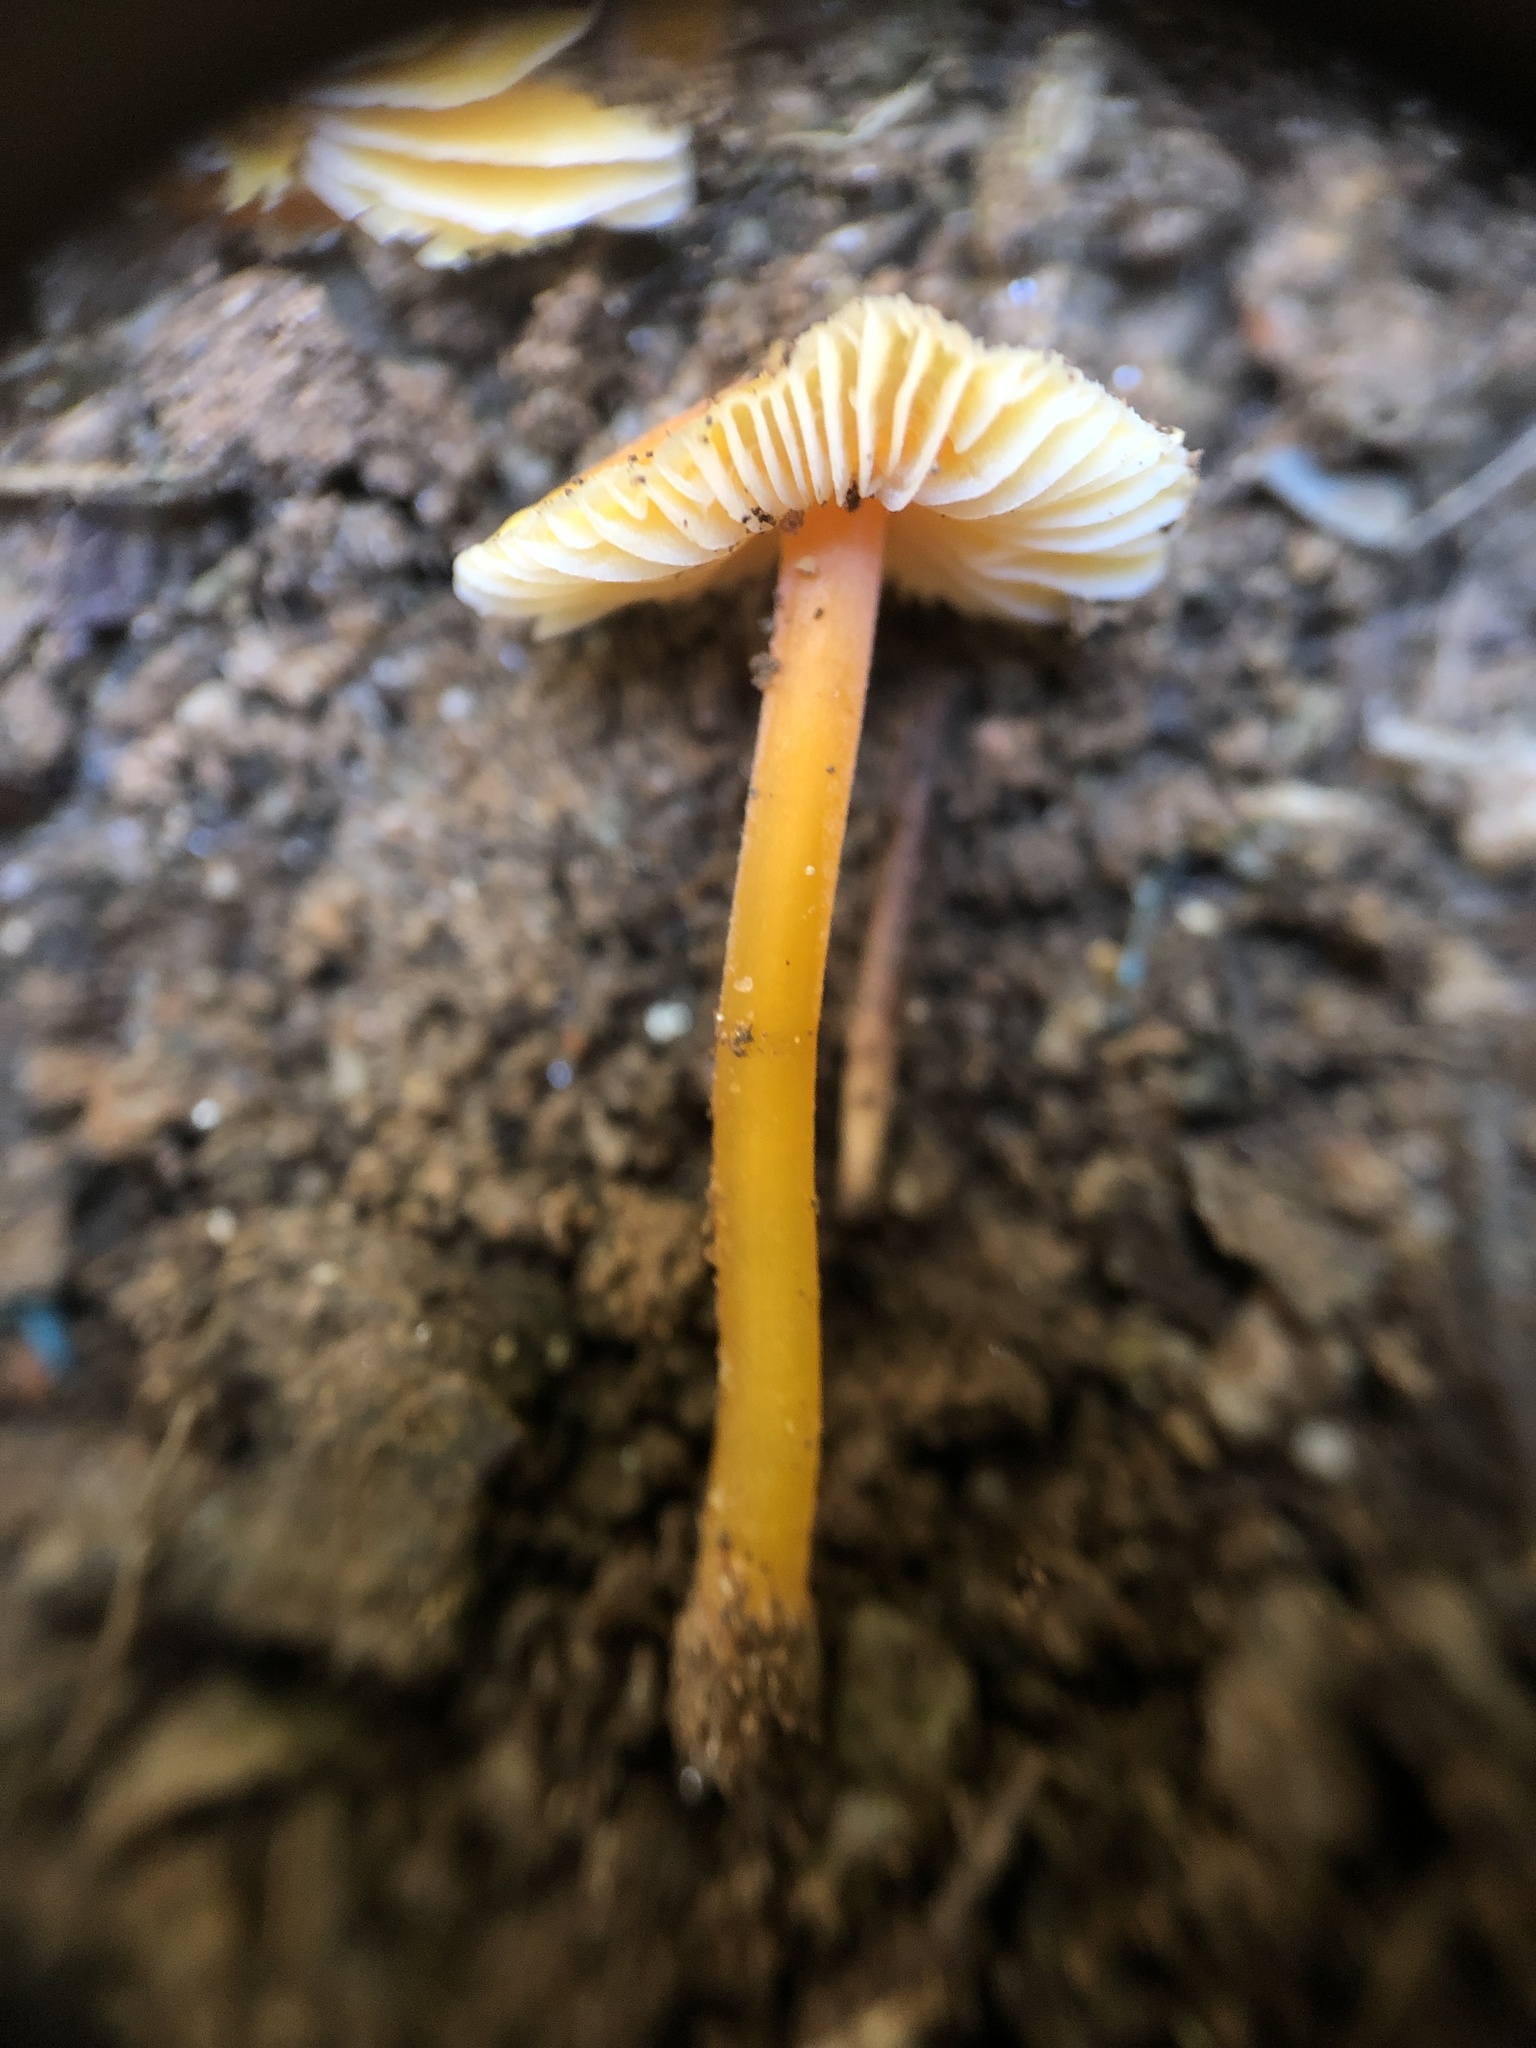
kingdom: Fungi
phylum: Basidiomycota
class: Agaricomycetes
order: Agaricales
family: Mycenaceae
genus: Mycena
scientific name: Mycena crocea
